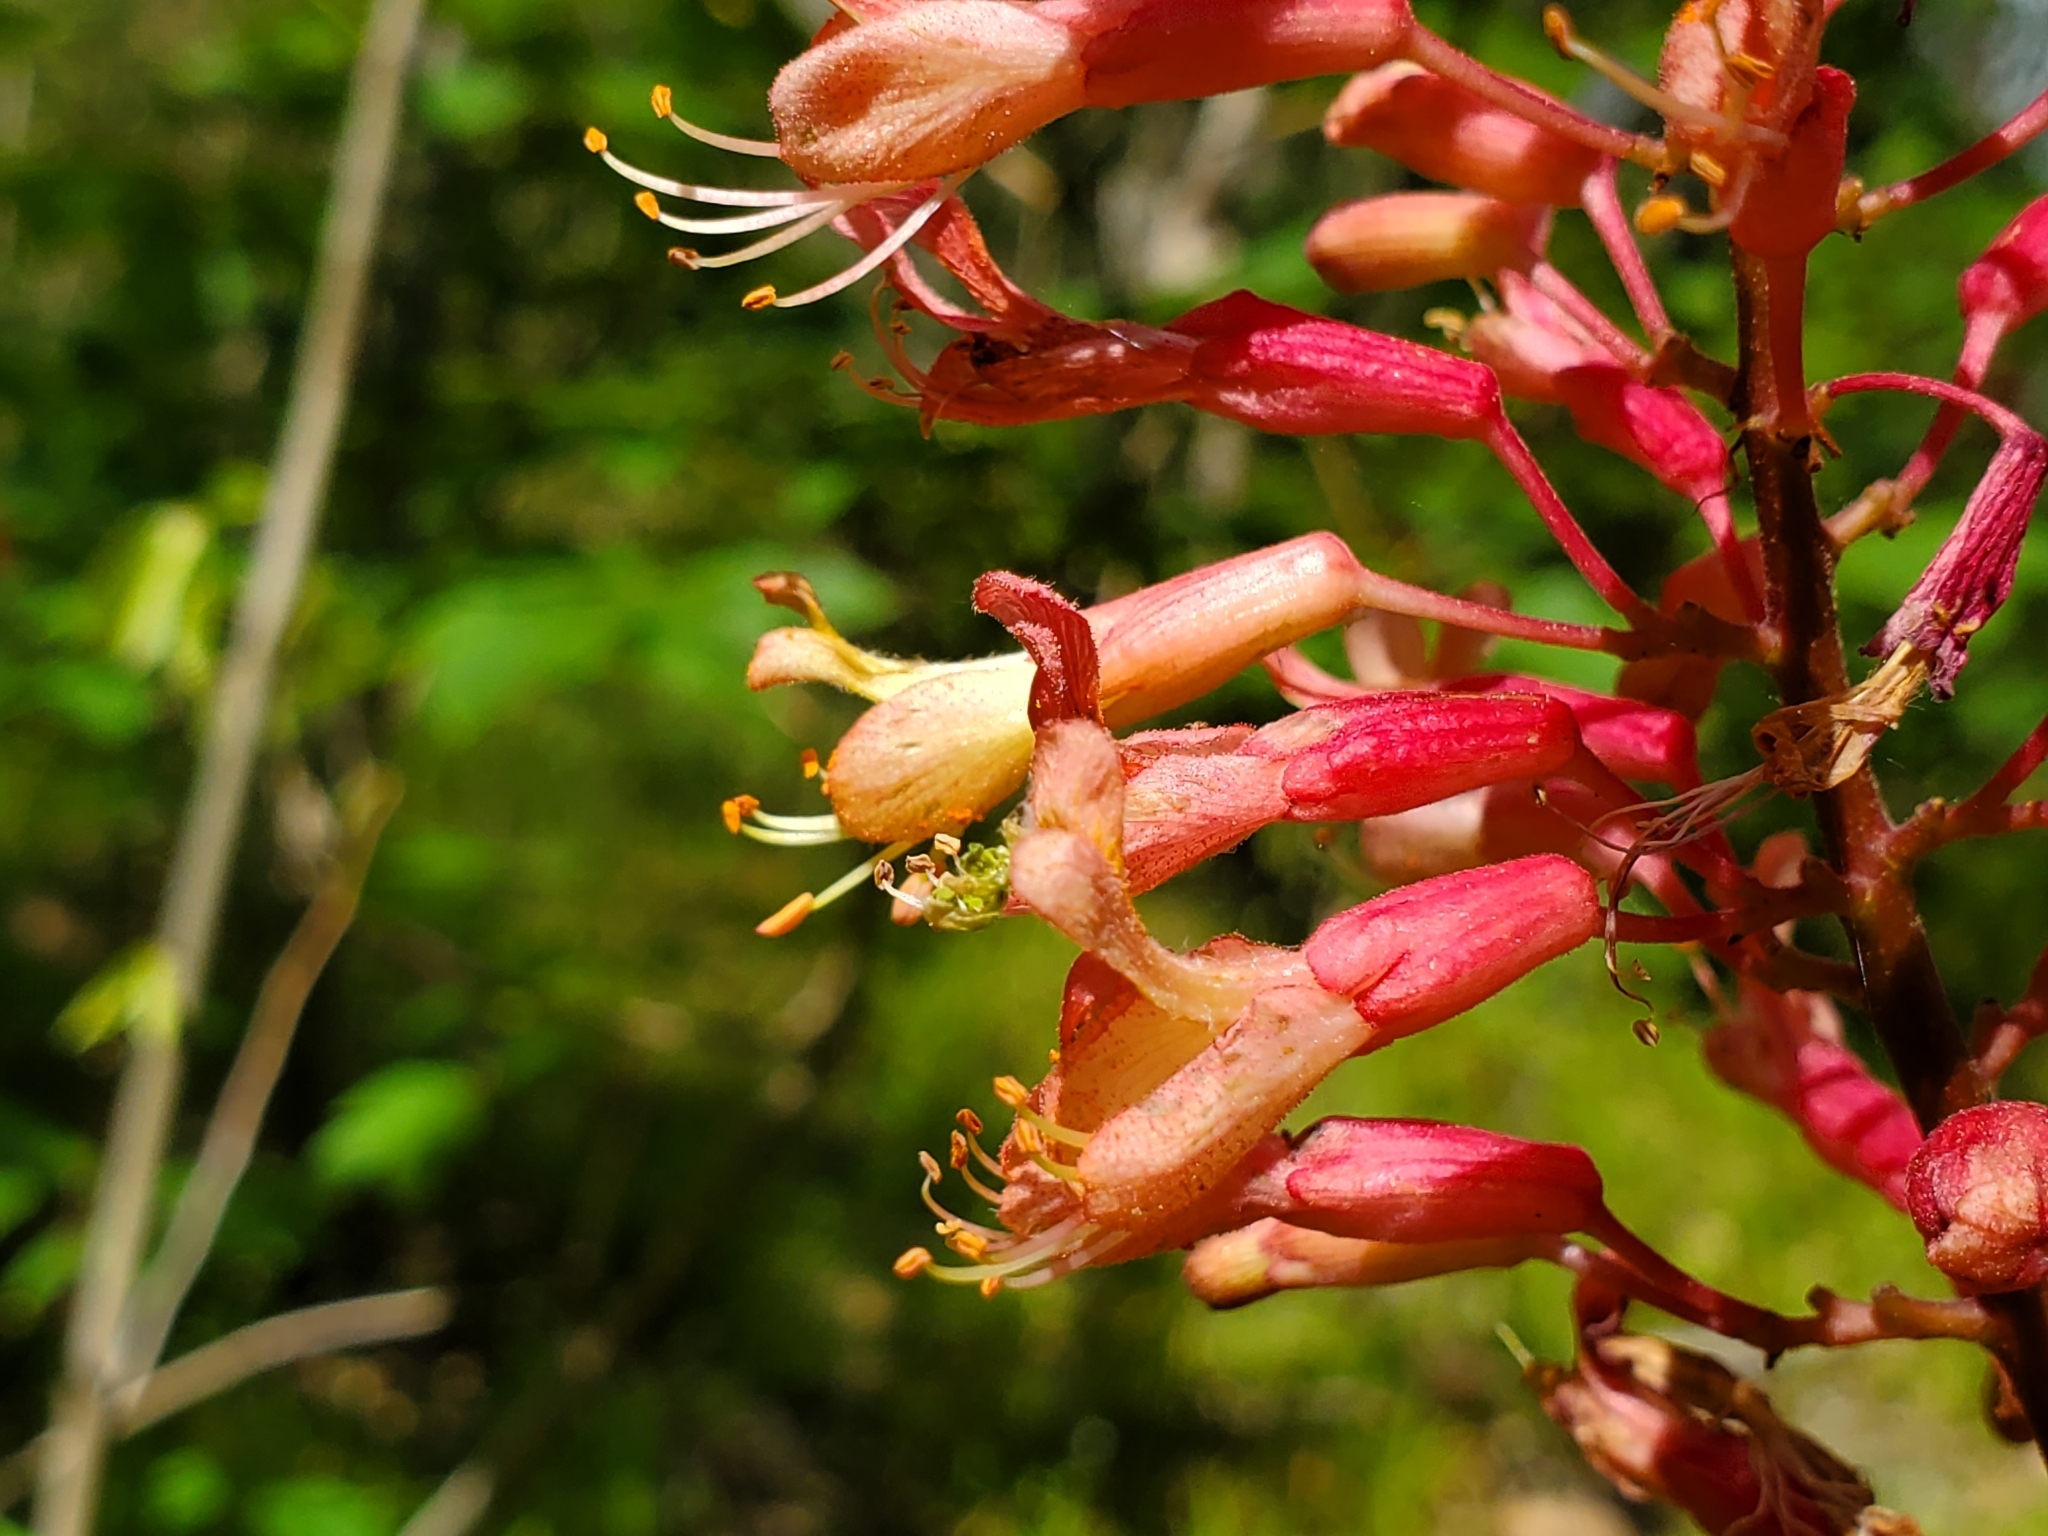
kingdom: Plantae
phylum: Tracheophyta
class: Magnoliopsida
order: Sapindales
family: Sapindaceae
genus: Aesculus
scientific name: Aesculus bushii
